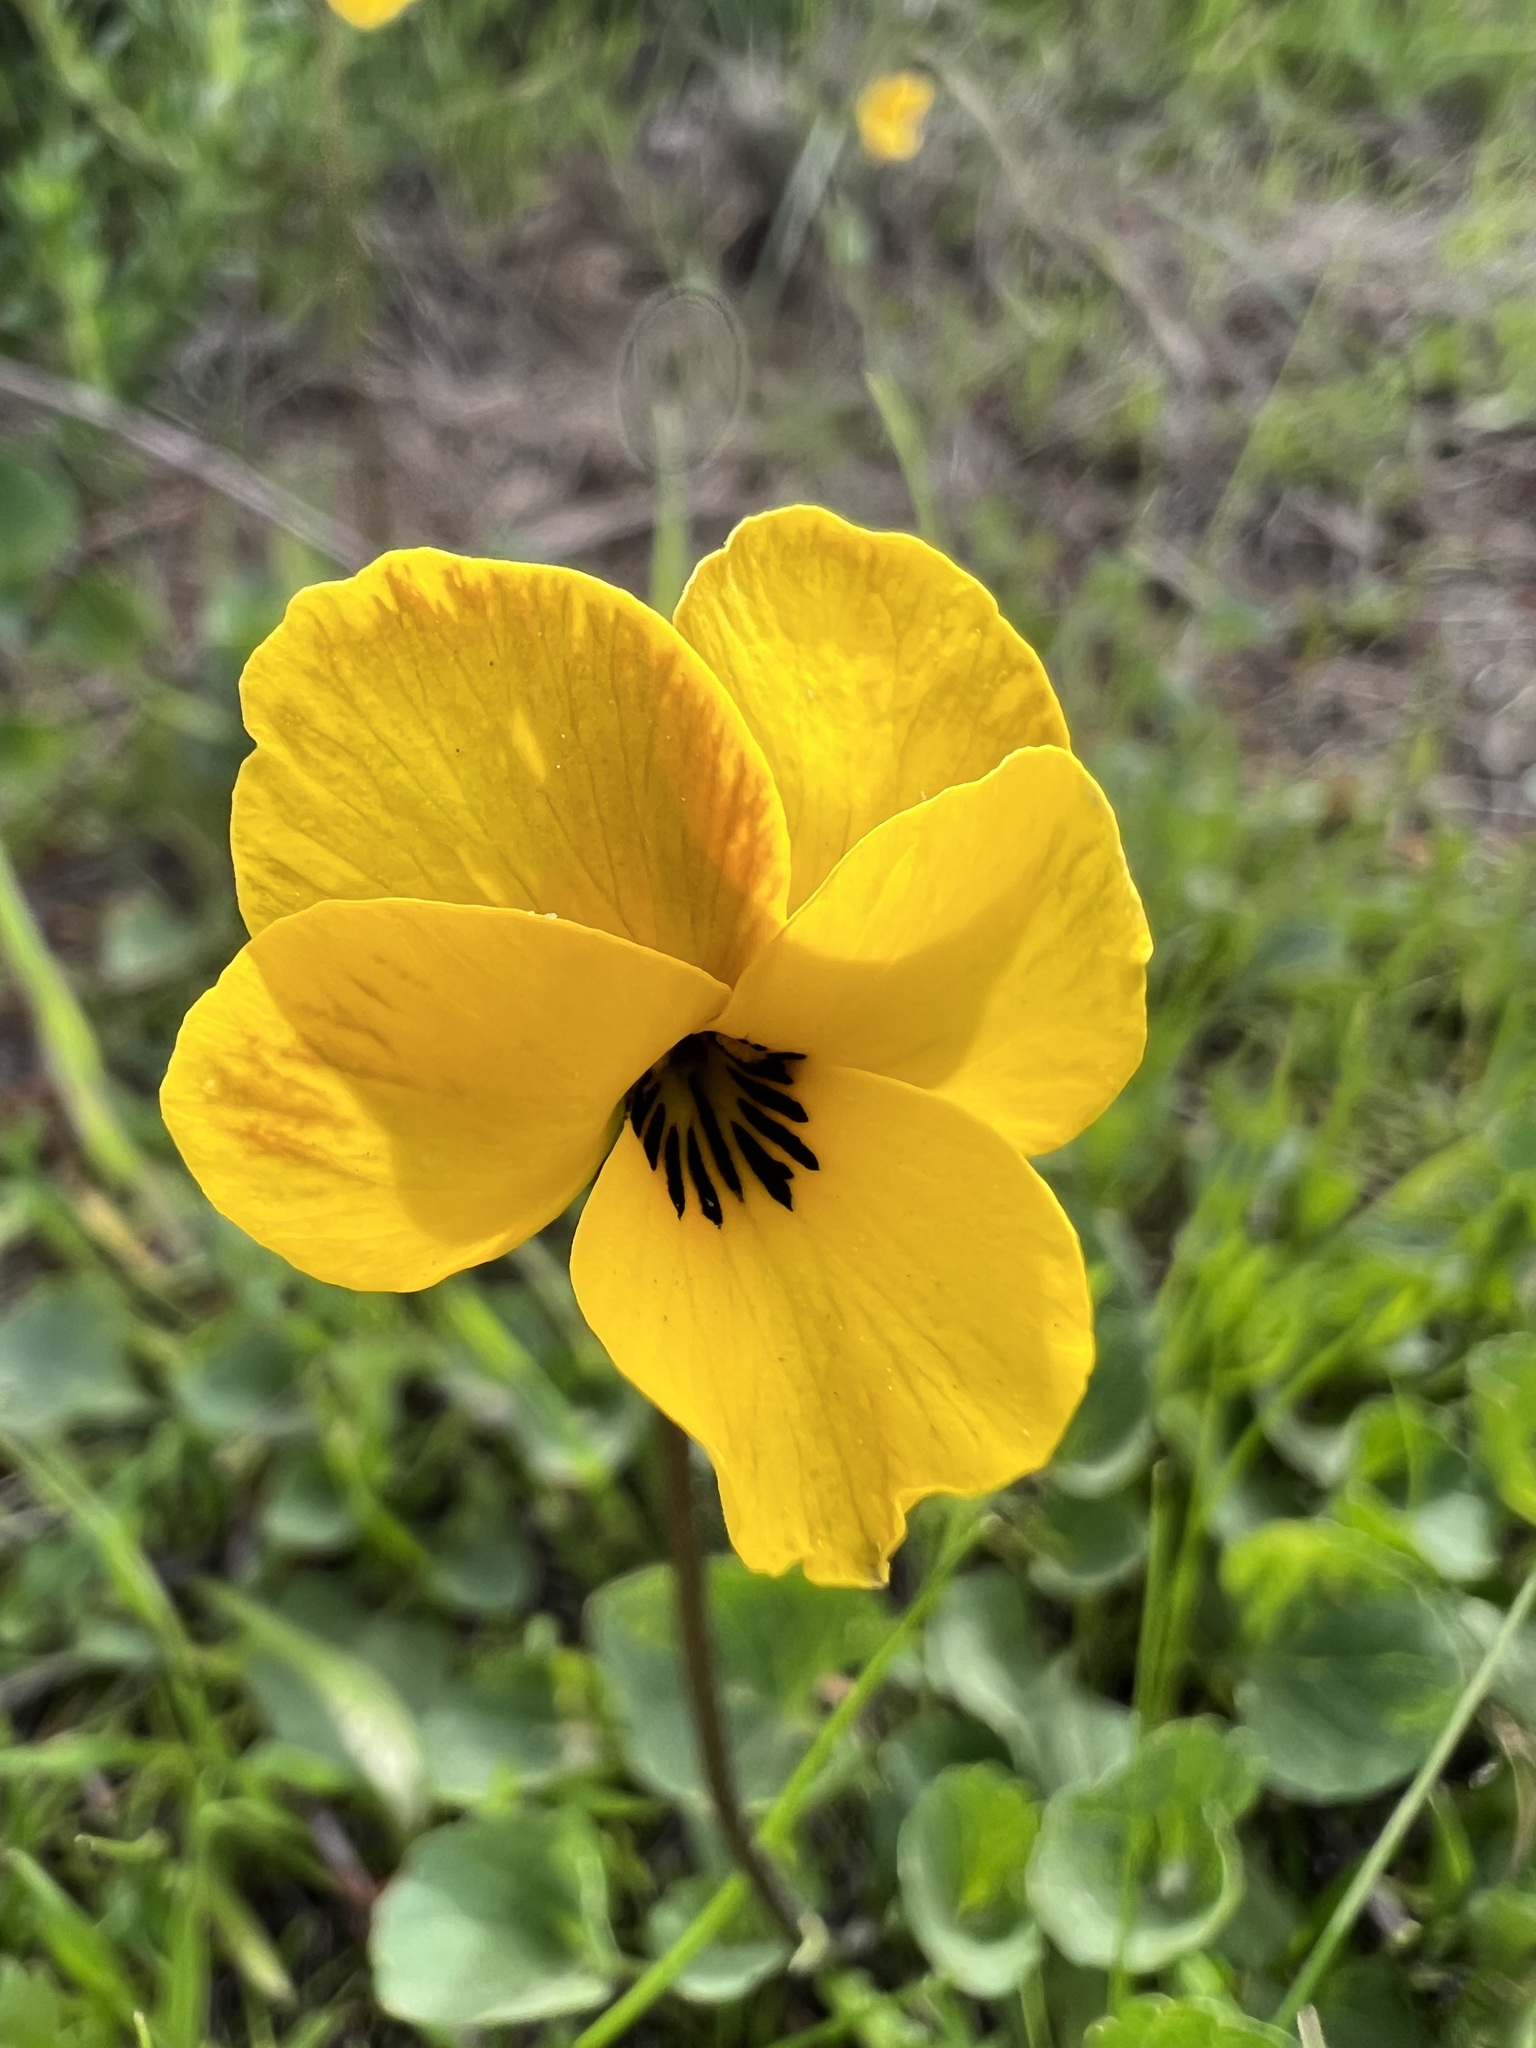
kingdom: Plantae
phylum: Tracheophyta
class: Magnoliopsida
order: Malpighiales
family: Violaceae
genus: Viola
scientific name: Viola pedunculata
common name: California golden violet
